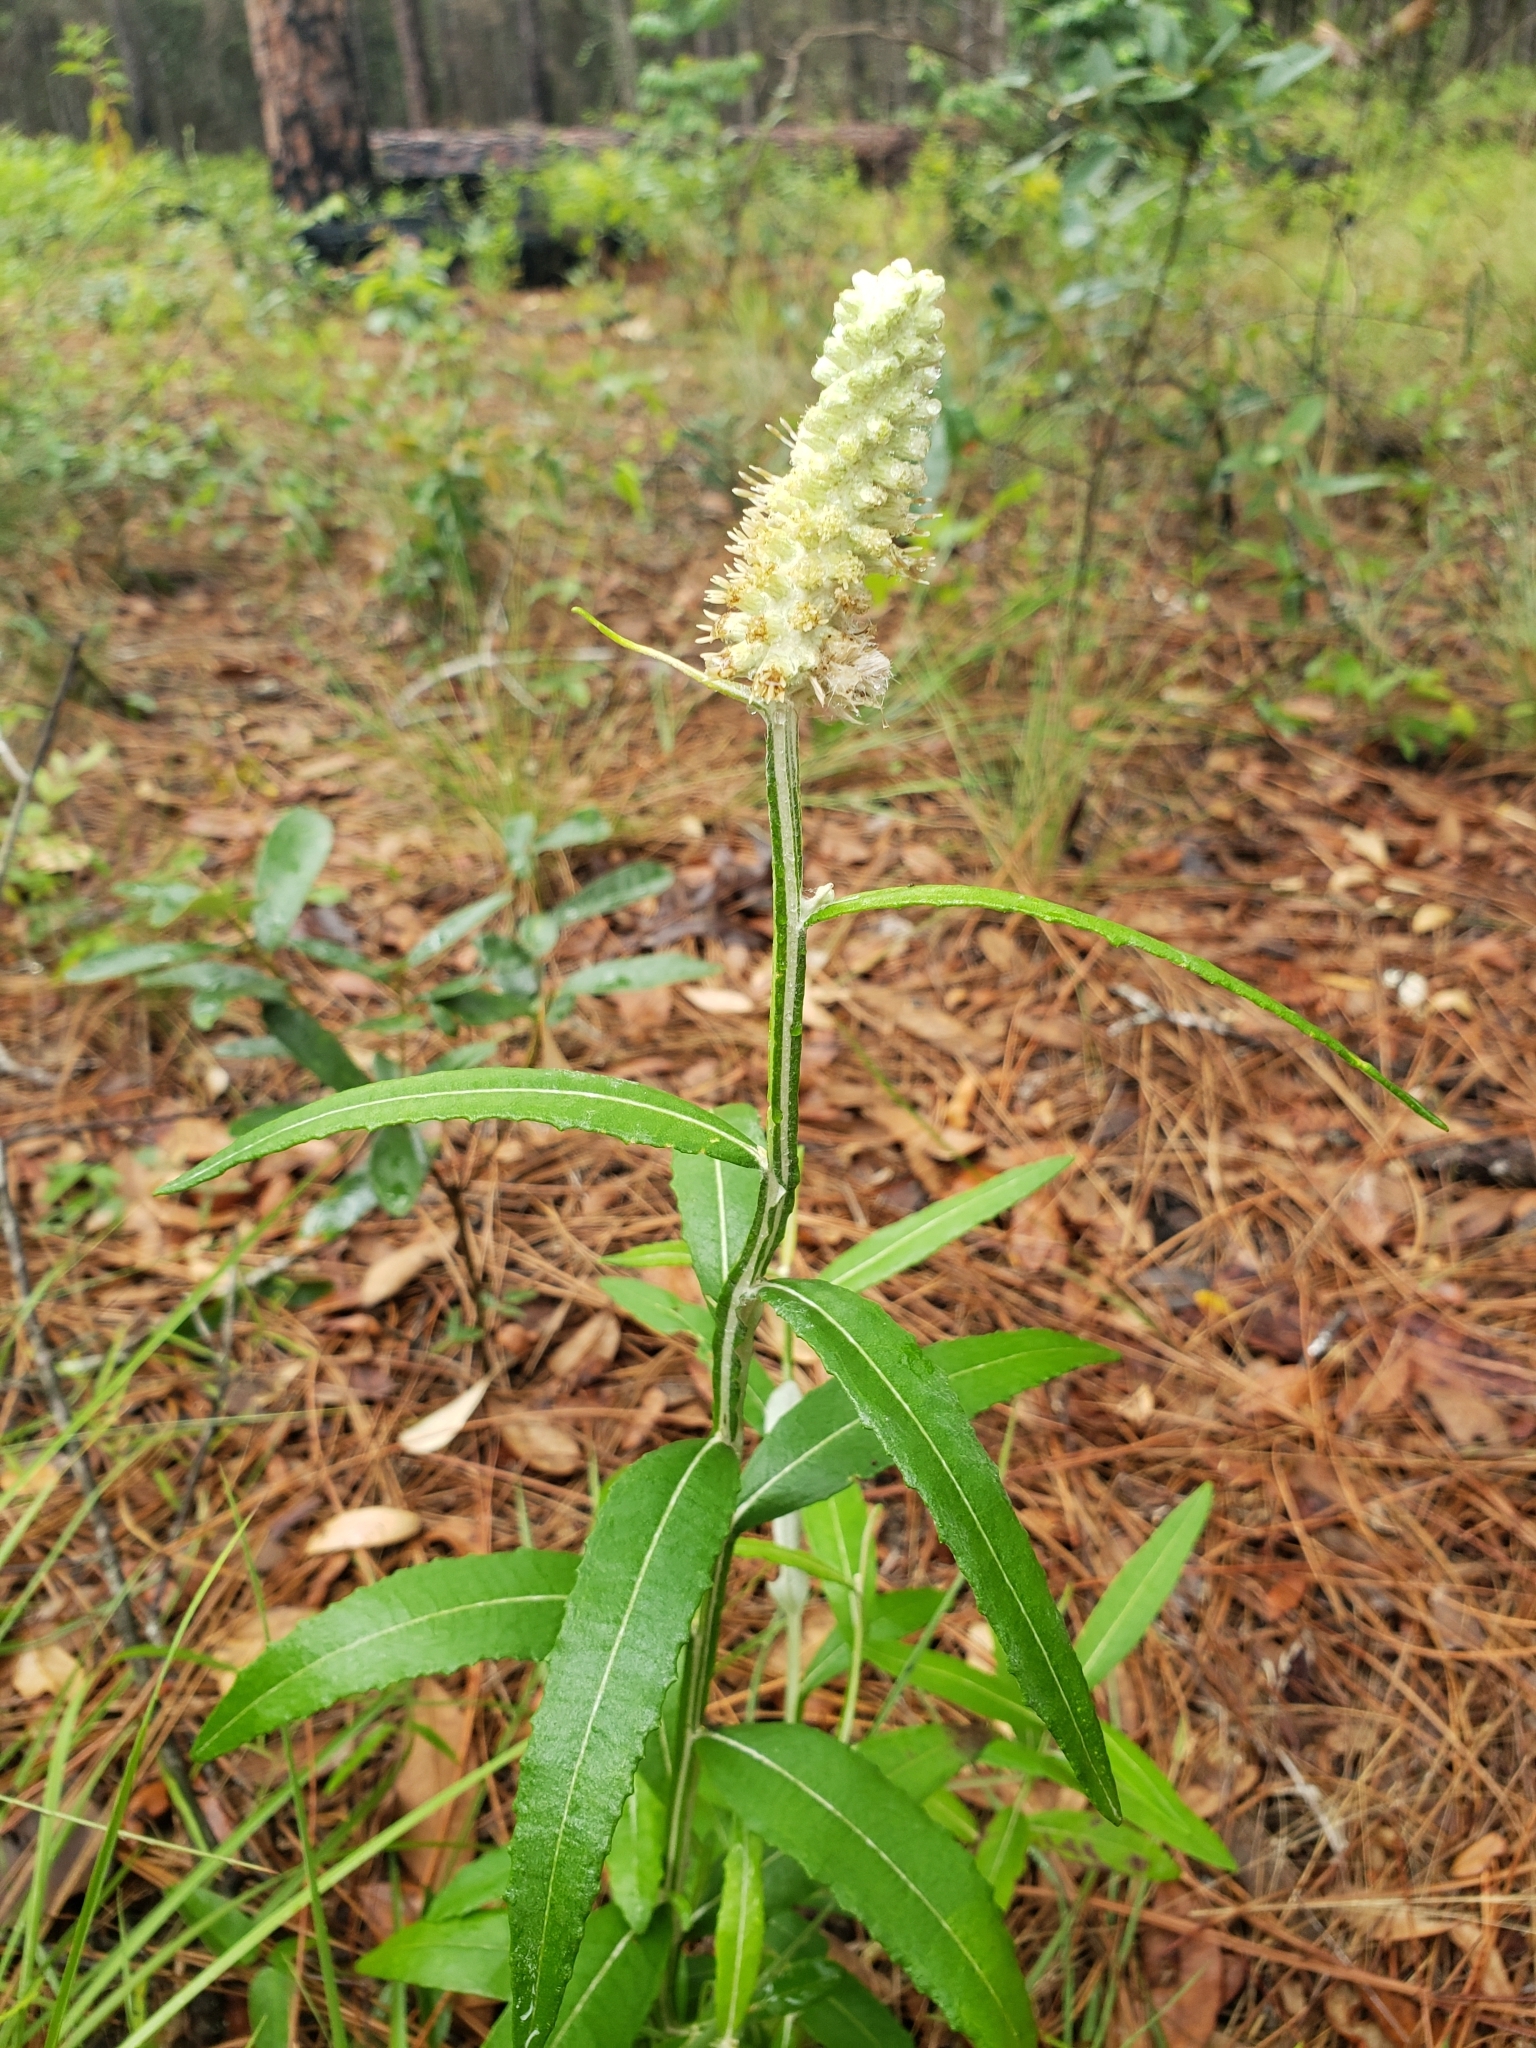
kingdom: Plantae
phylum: Tracheophyta
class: Magnoliopsida
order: Asterales
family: Asteraceae
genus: Pterocaulon
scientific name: Pterocaulon pycnostachyum
